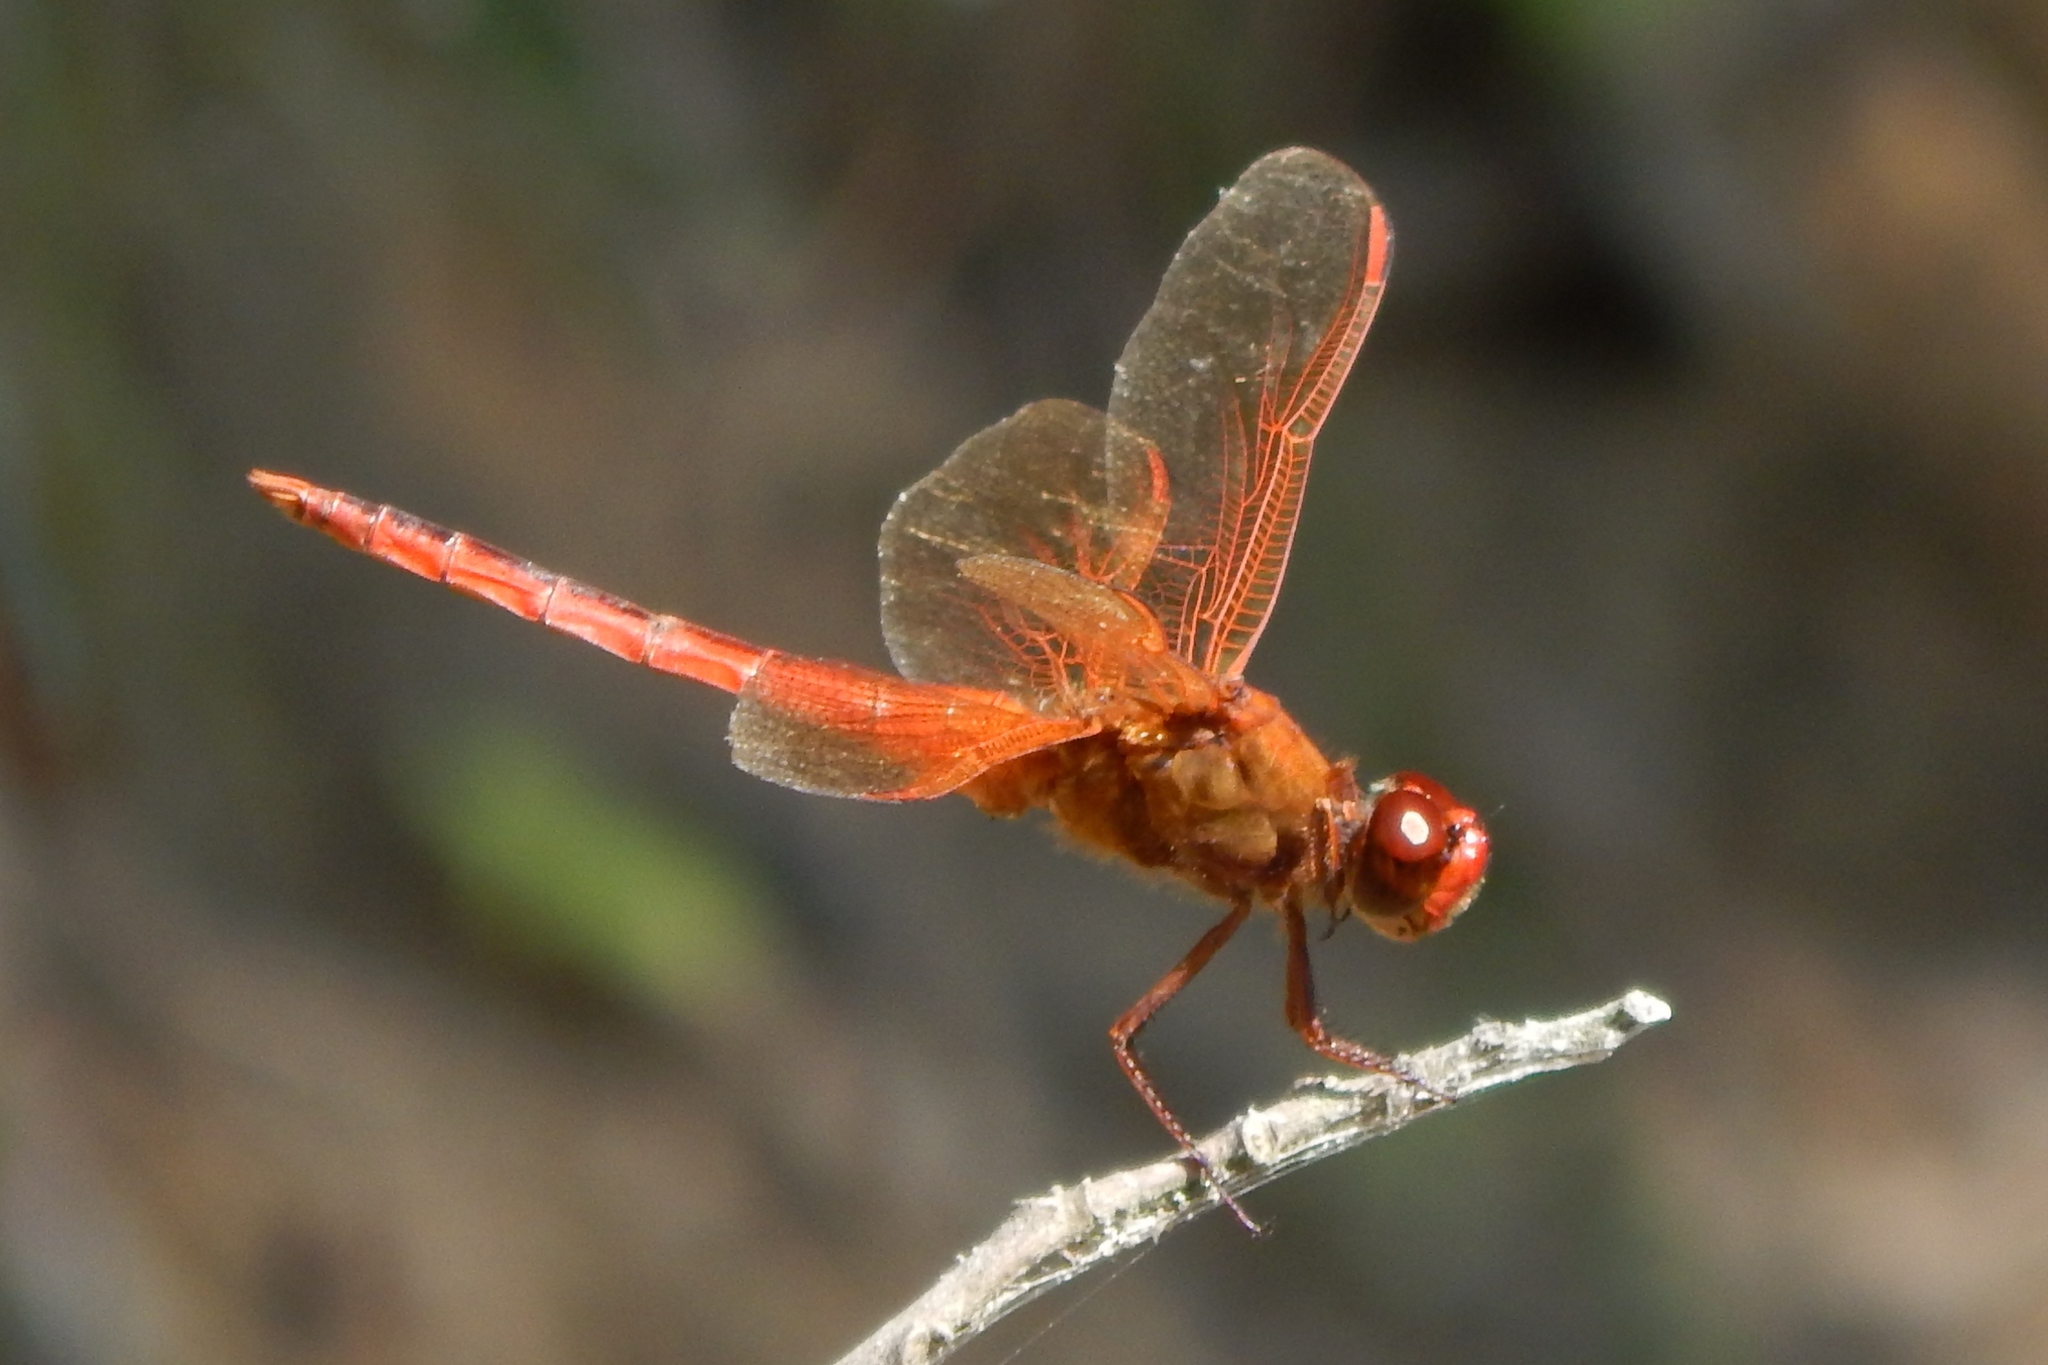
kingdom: Animalia
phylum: Arthropoda
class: Insecta
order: Odonata
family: Libellulidae
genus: Libellula
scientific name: Libellula needhami
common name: Needham's skimmer
